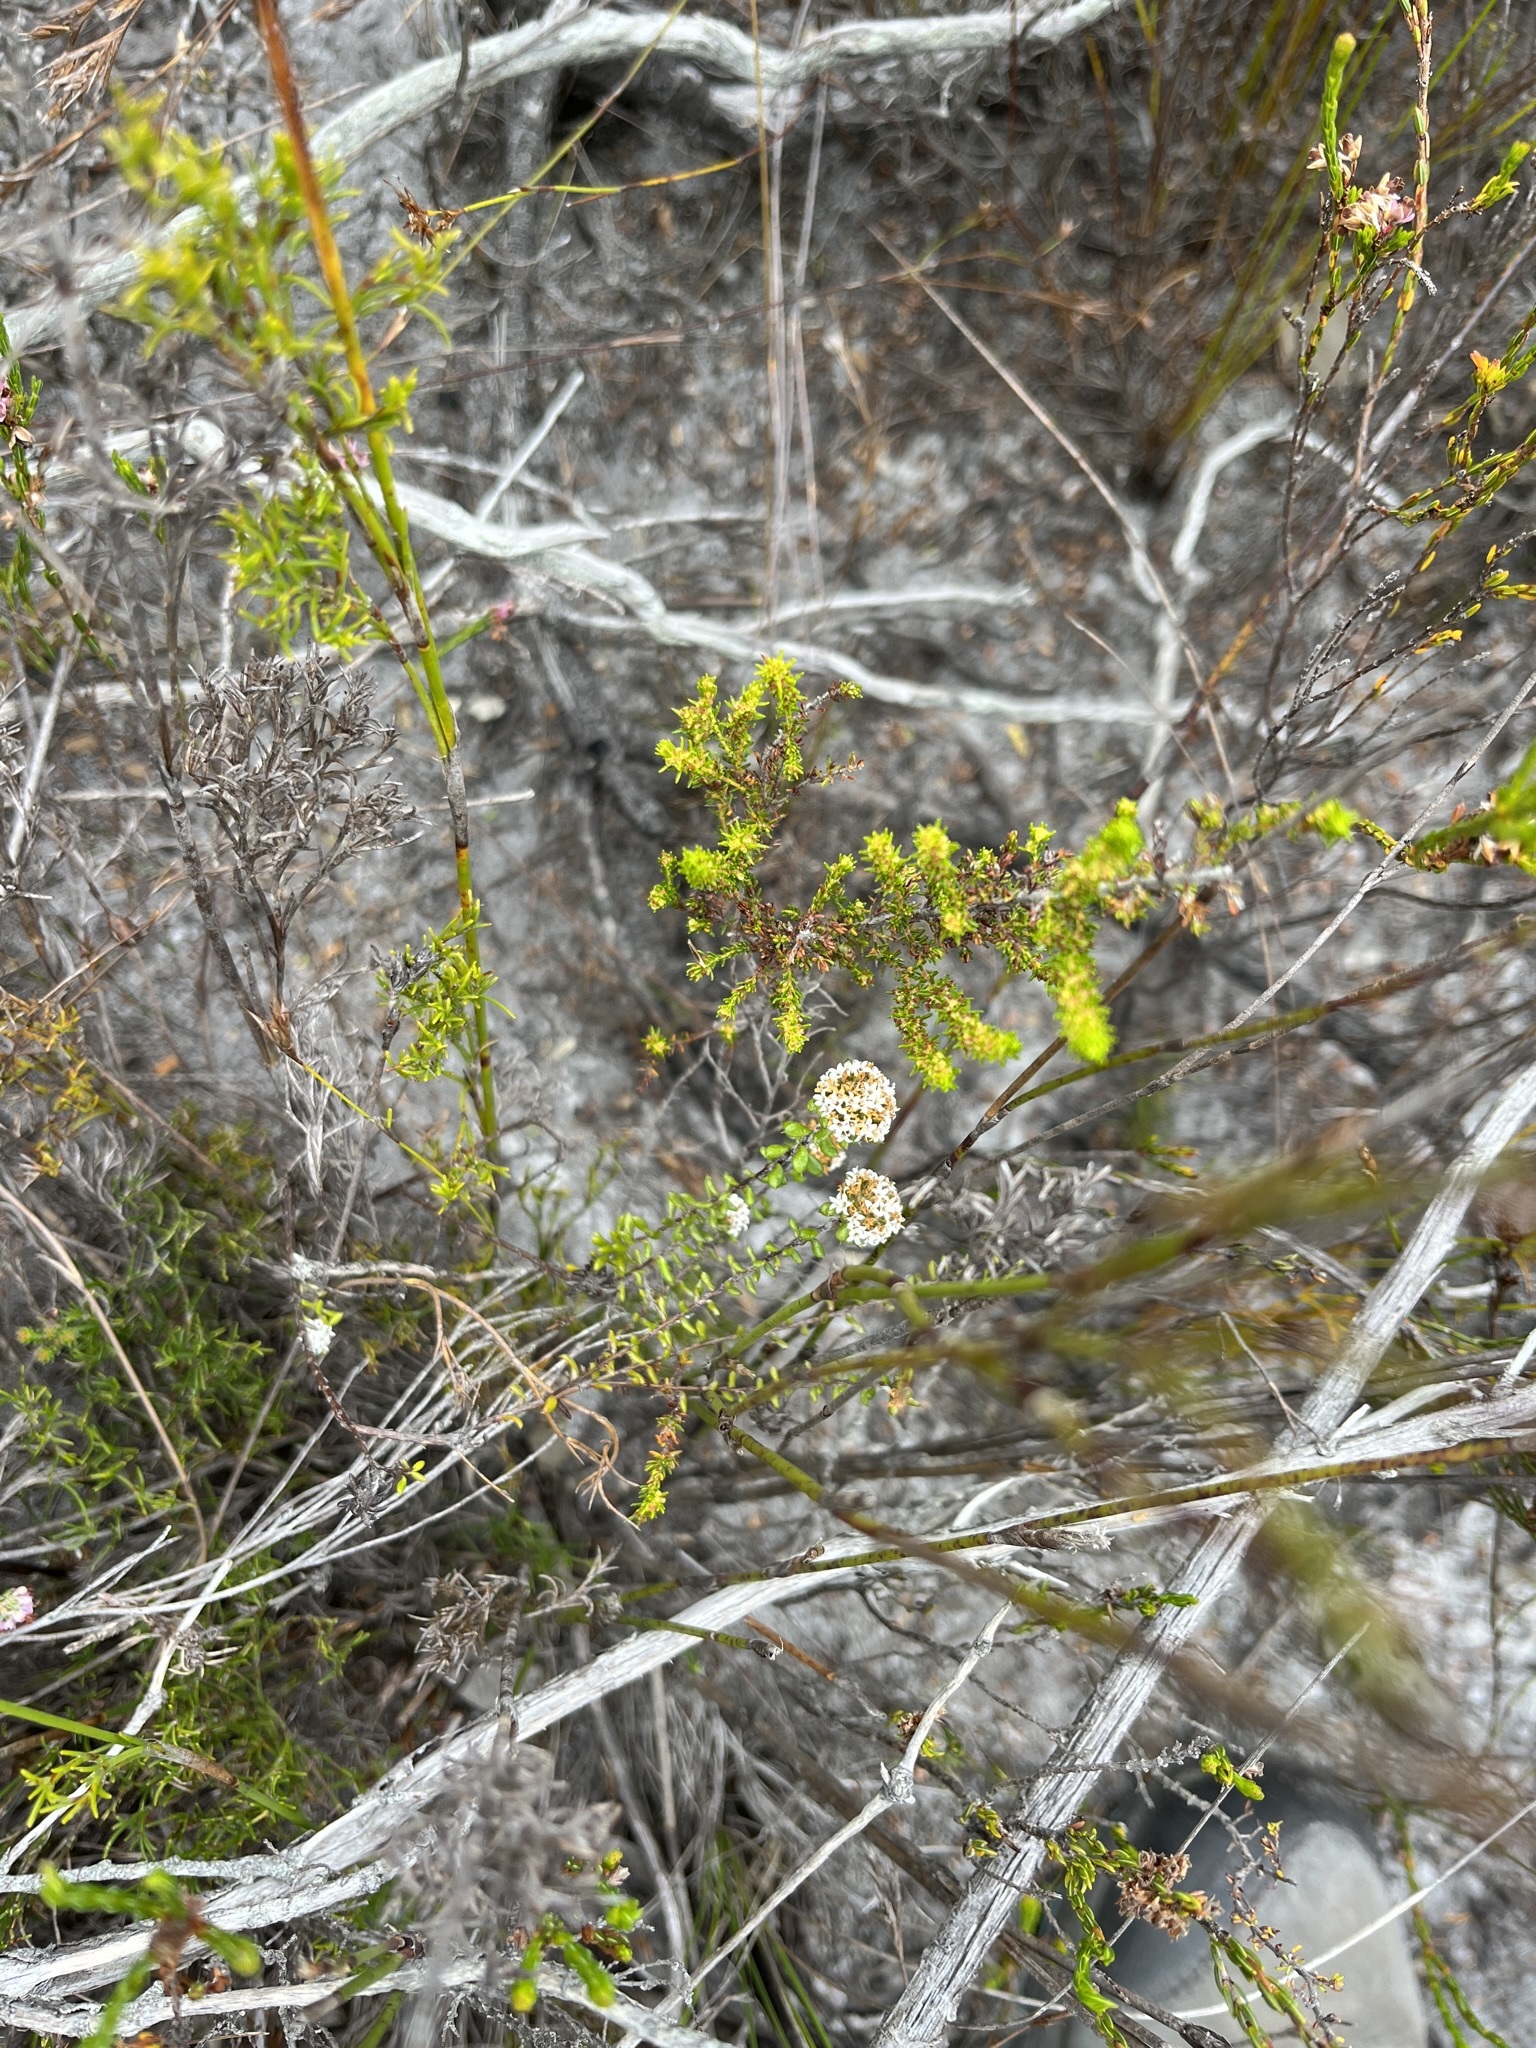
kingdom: Plantae
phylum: Tracheophyta
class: Magnoliopsida
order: Asterales
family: Asteraceae
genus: Stoebe
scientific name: Stoebe cyathuloides
